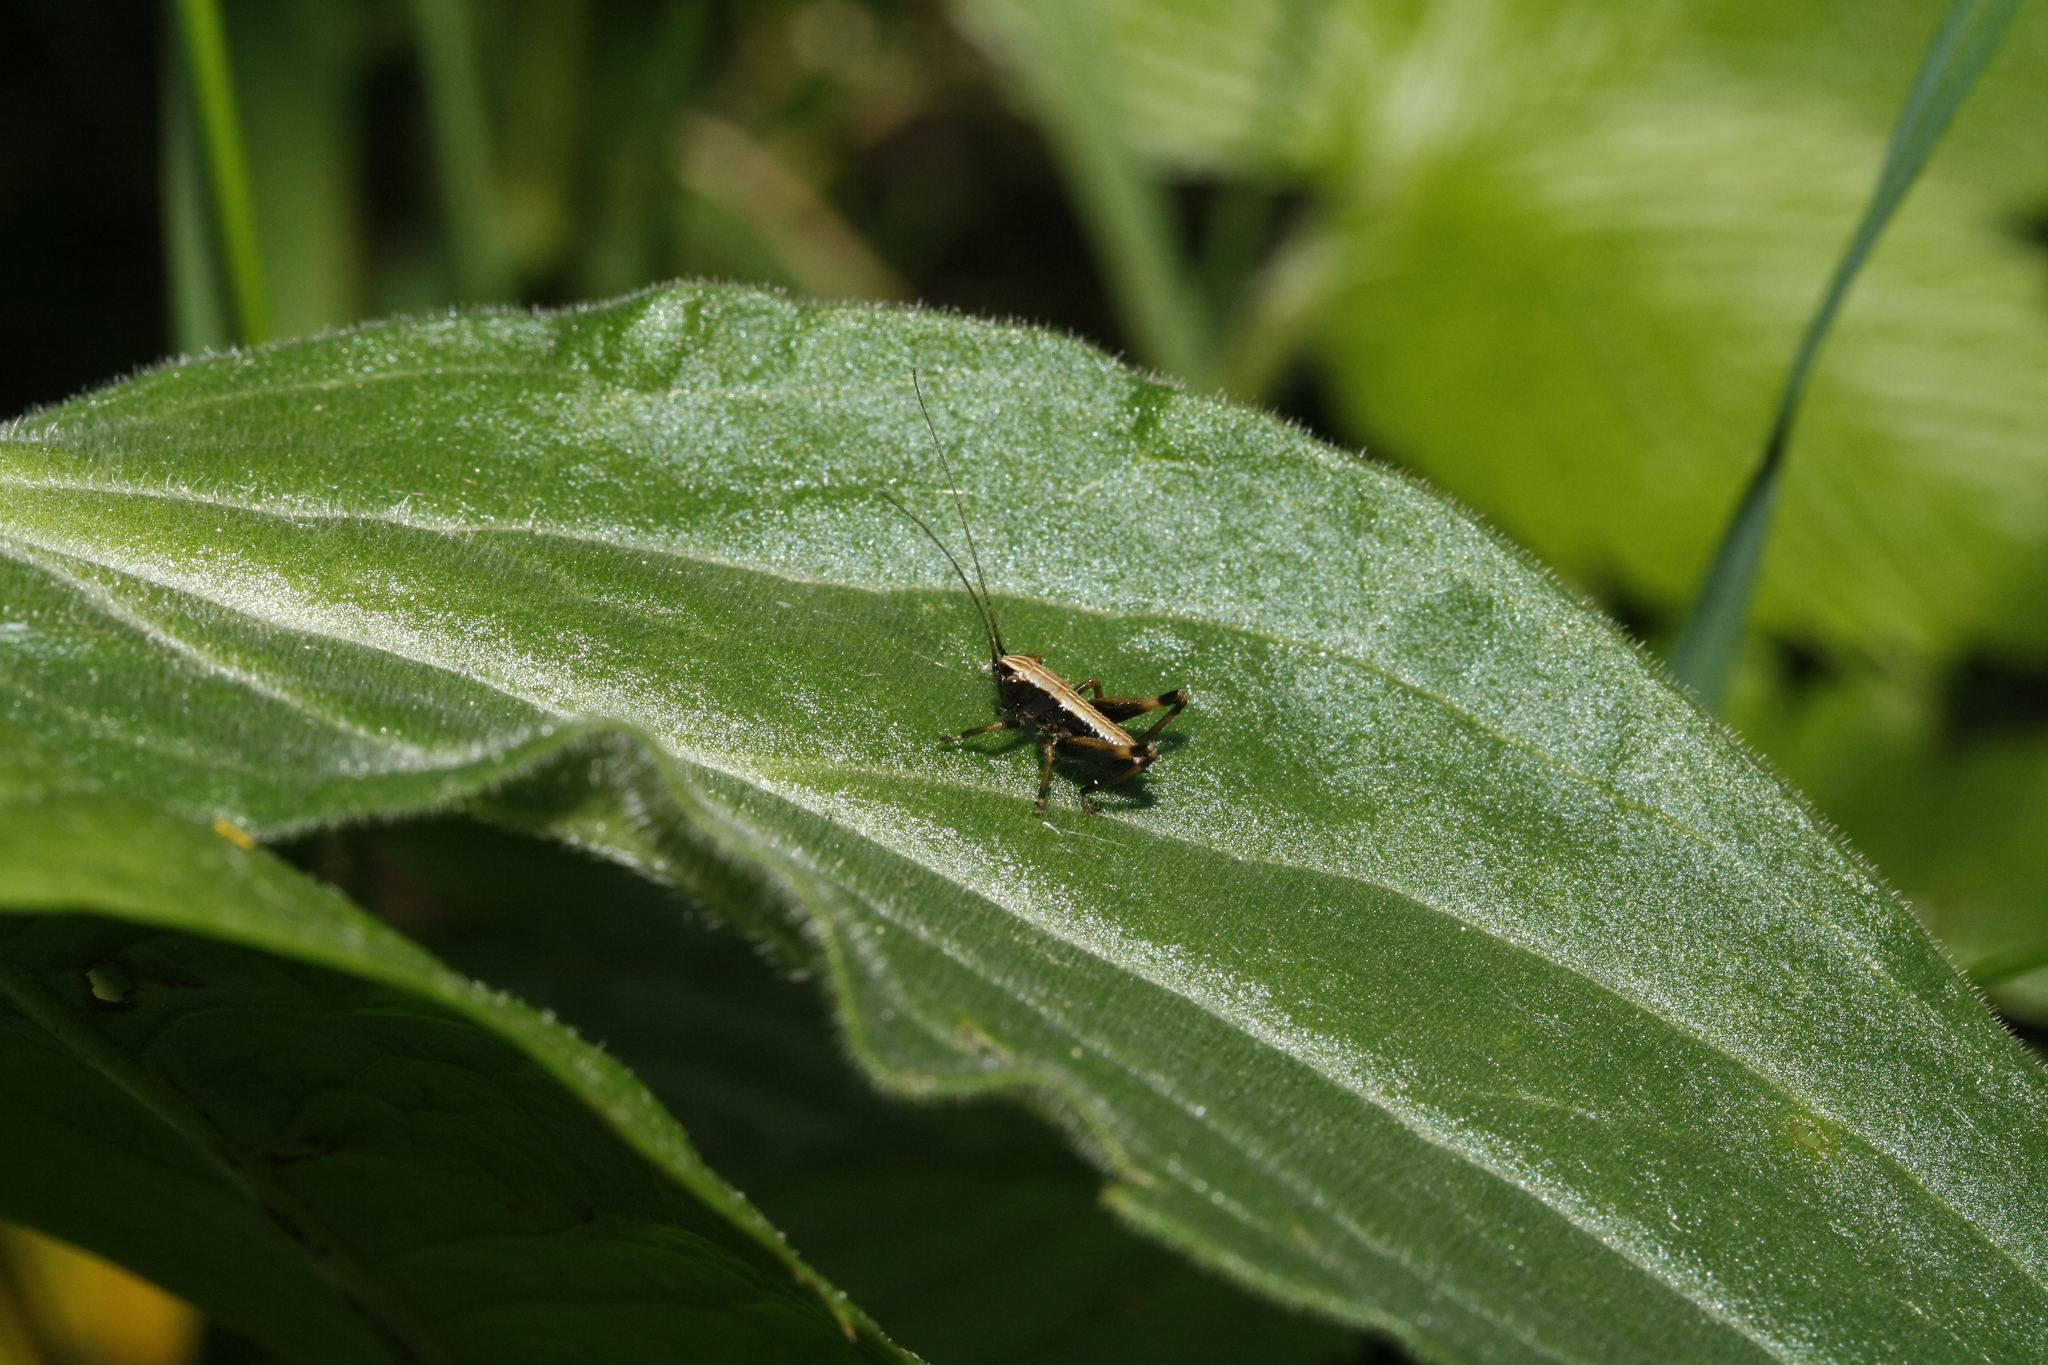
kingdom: Animalia
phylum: Arthropoda
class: Insecta
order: Orthoptera
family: Tettigoniidae
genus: Pholidoptera
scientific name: Pholidoptera griseoaptera
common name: Dark bush-cricket
